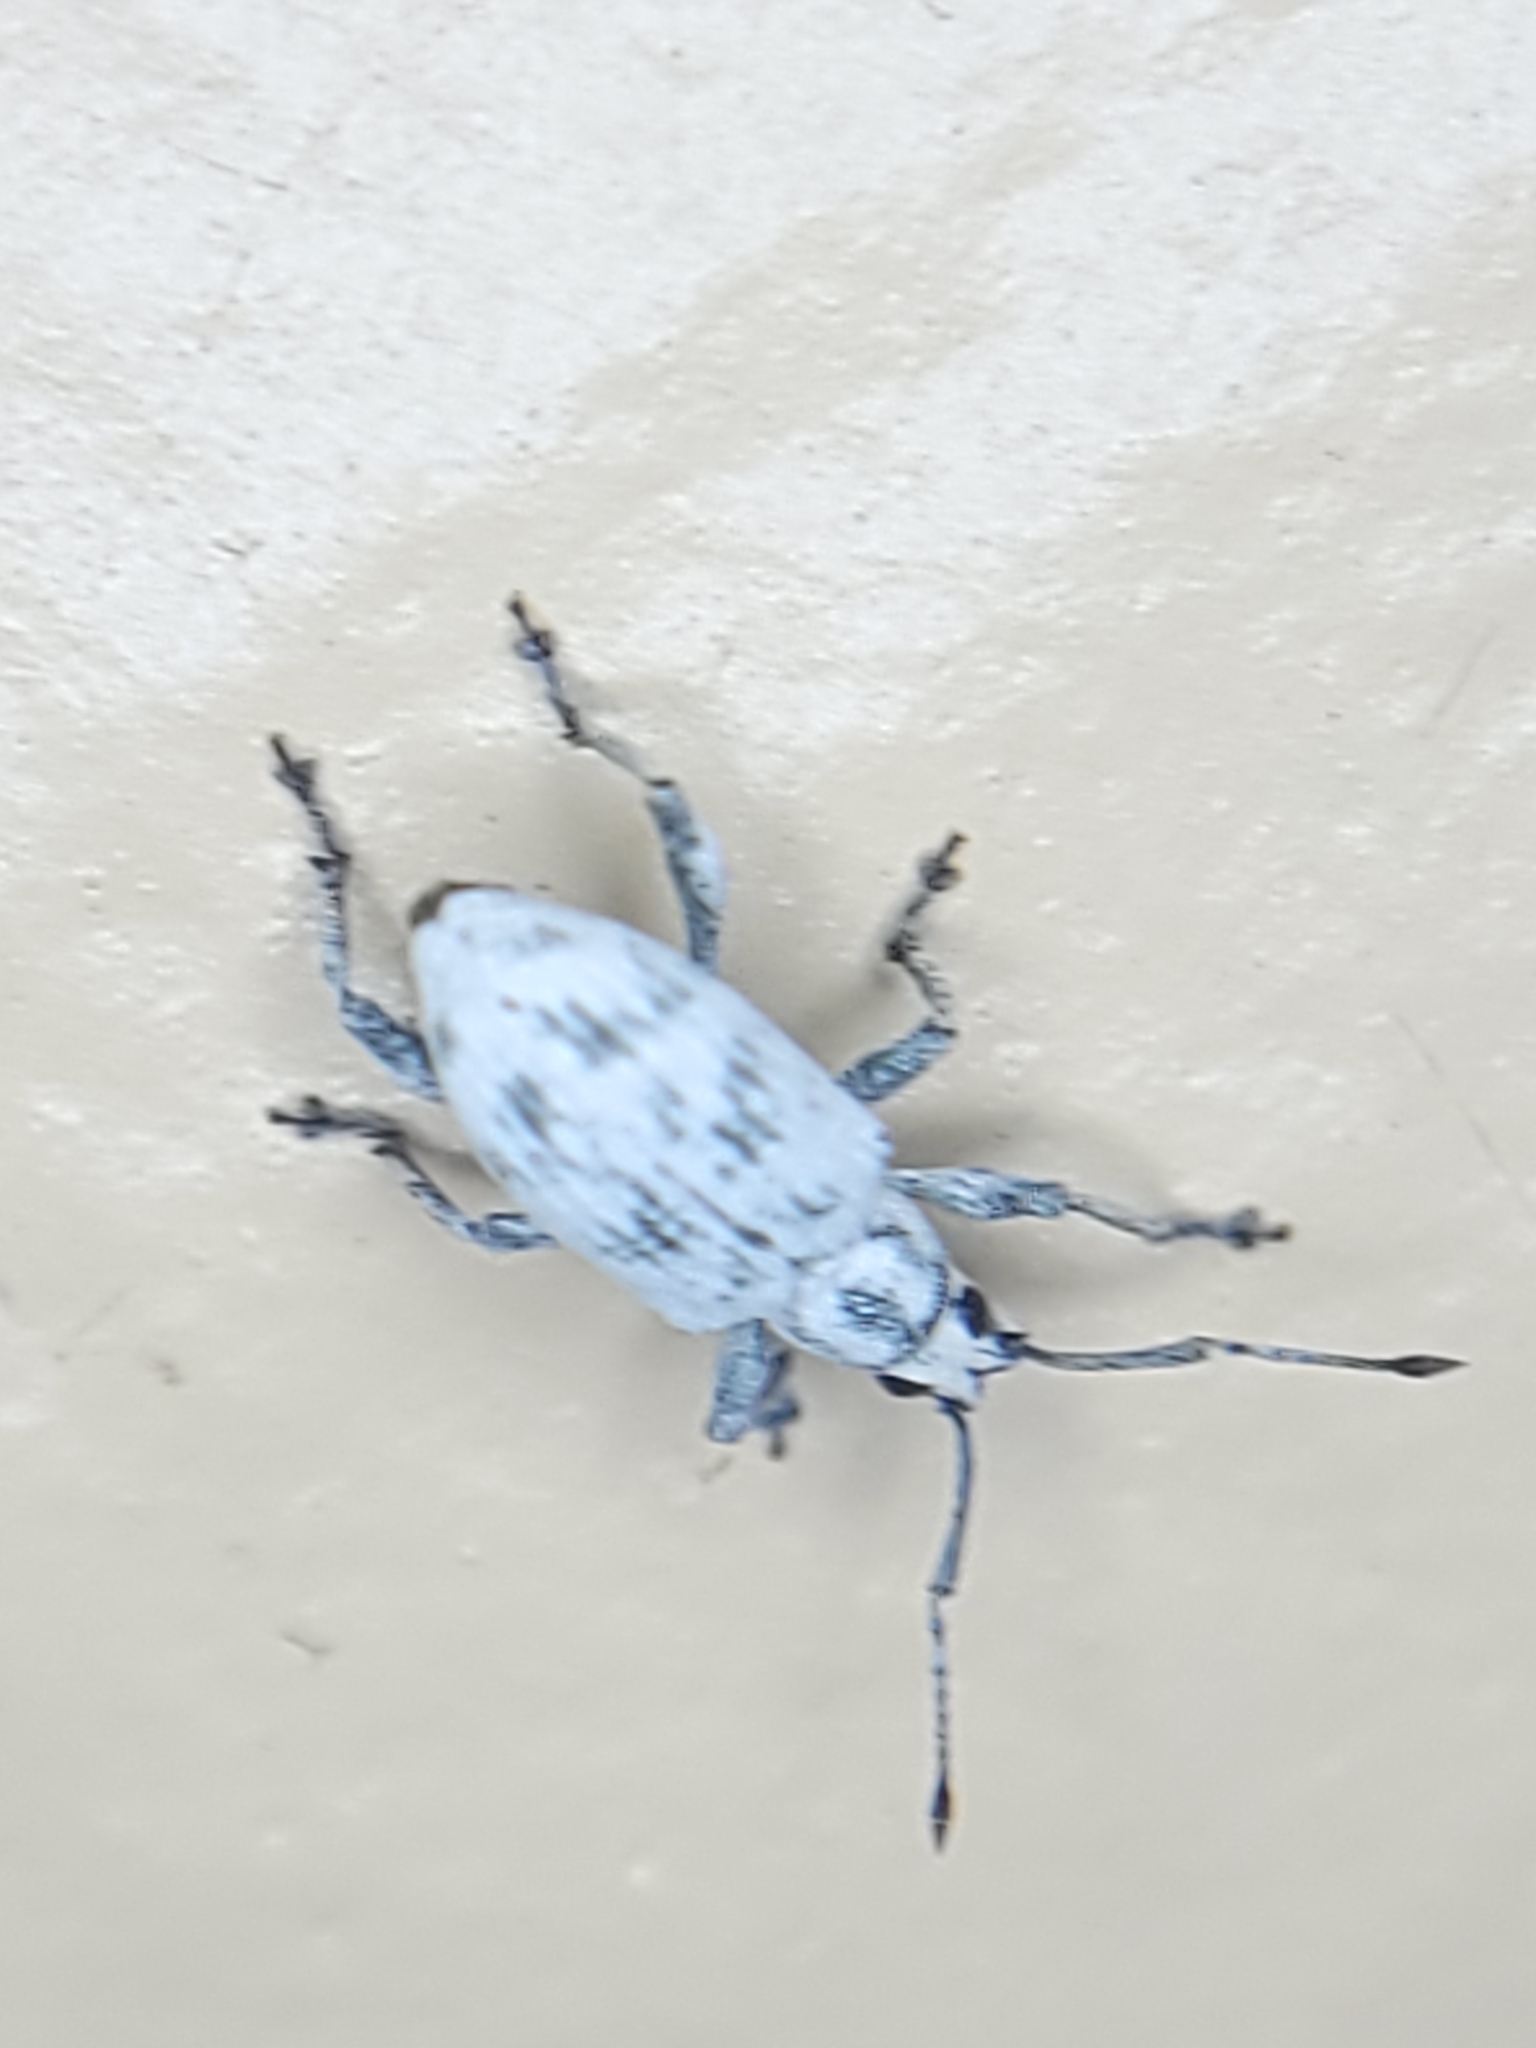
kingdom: Animalia
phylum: Arthropoda
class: Insecta
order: Coleoptera
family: Curculionidae
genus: Myllocerus
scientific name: Myllocerus undecimpustulatus
